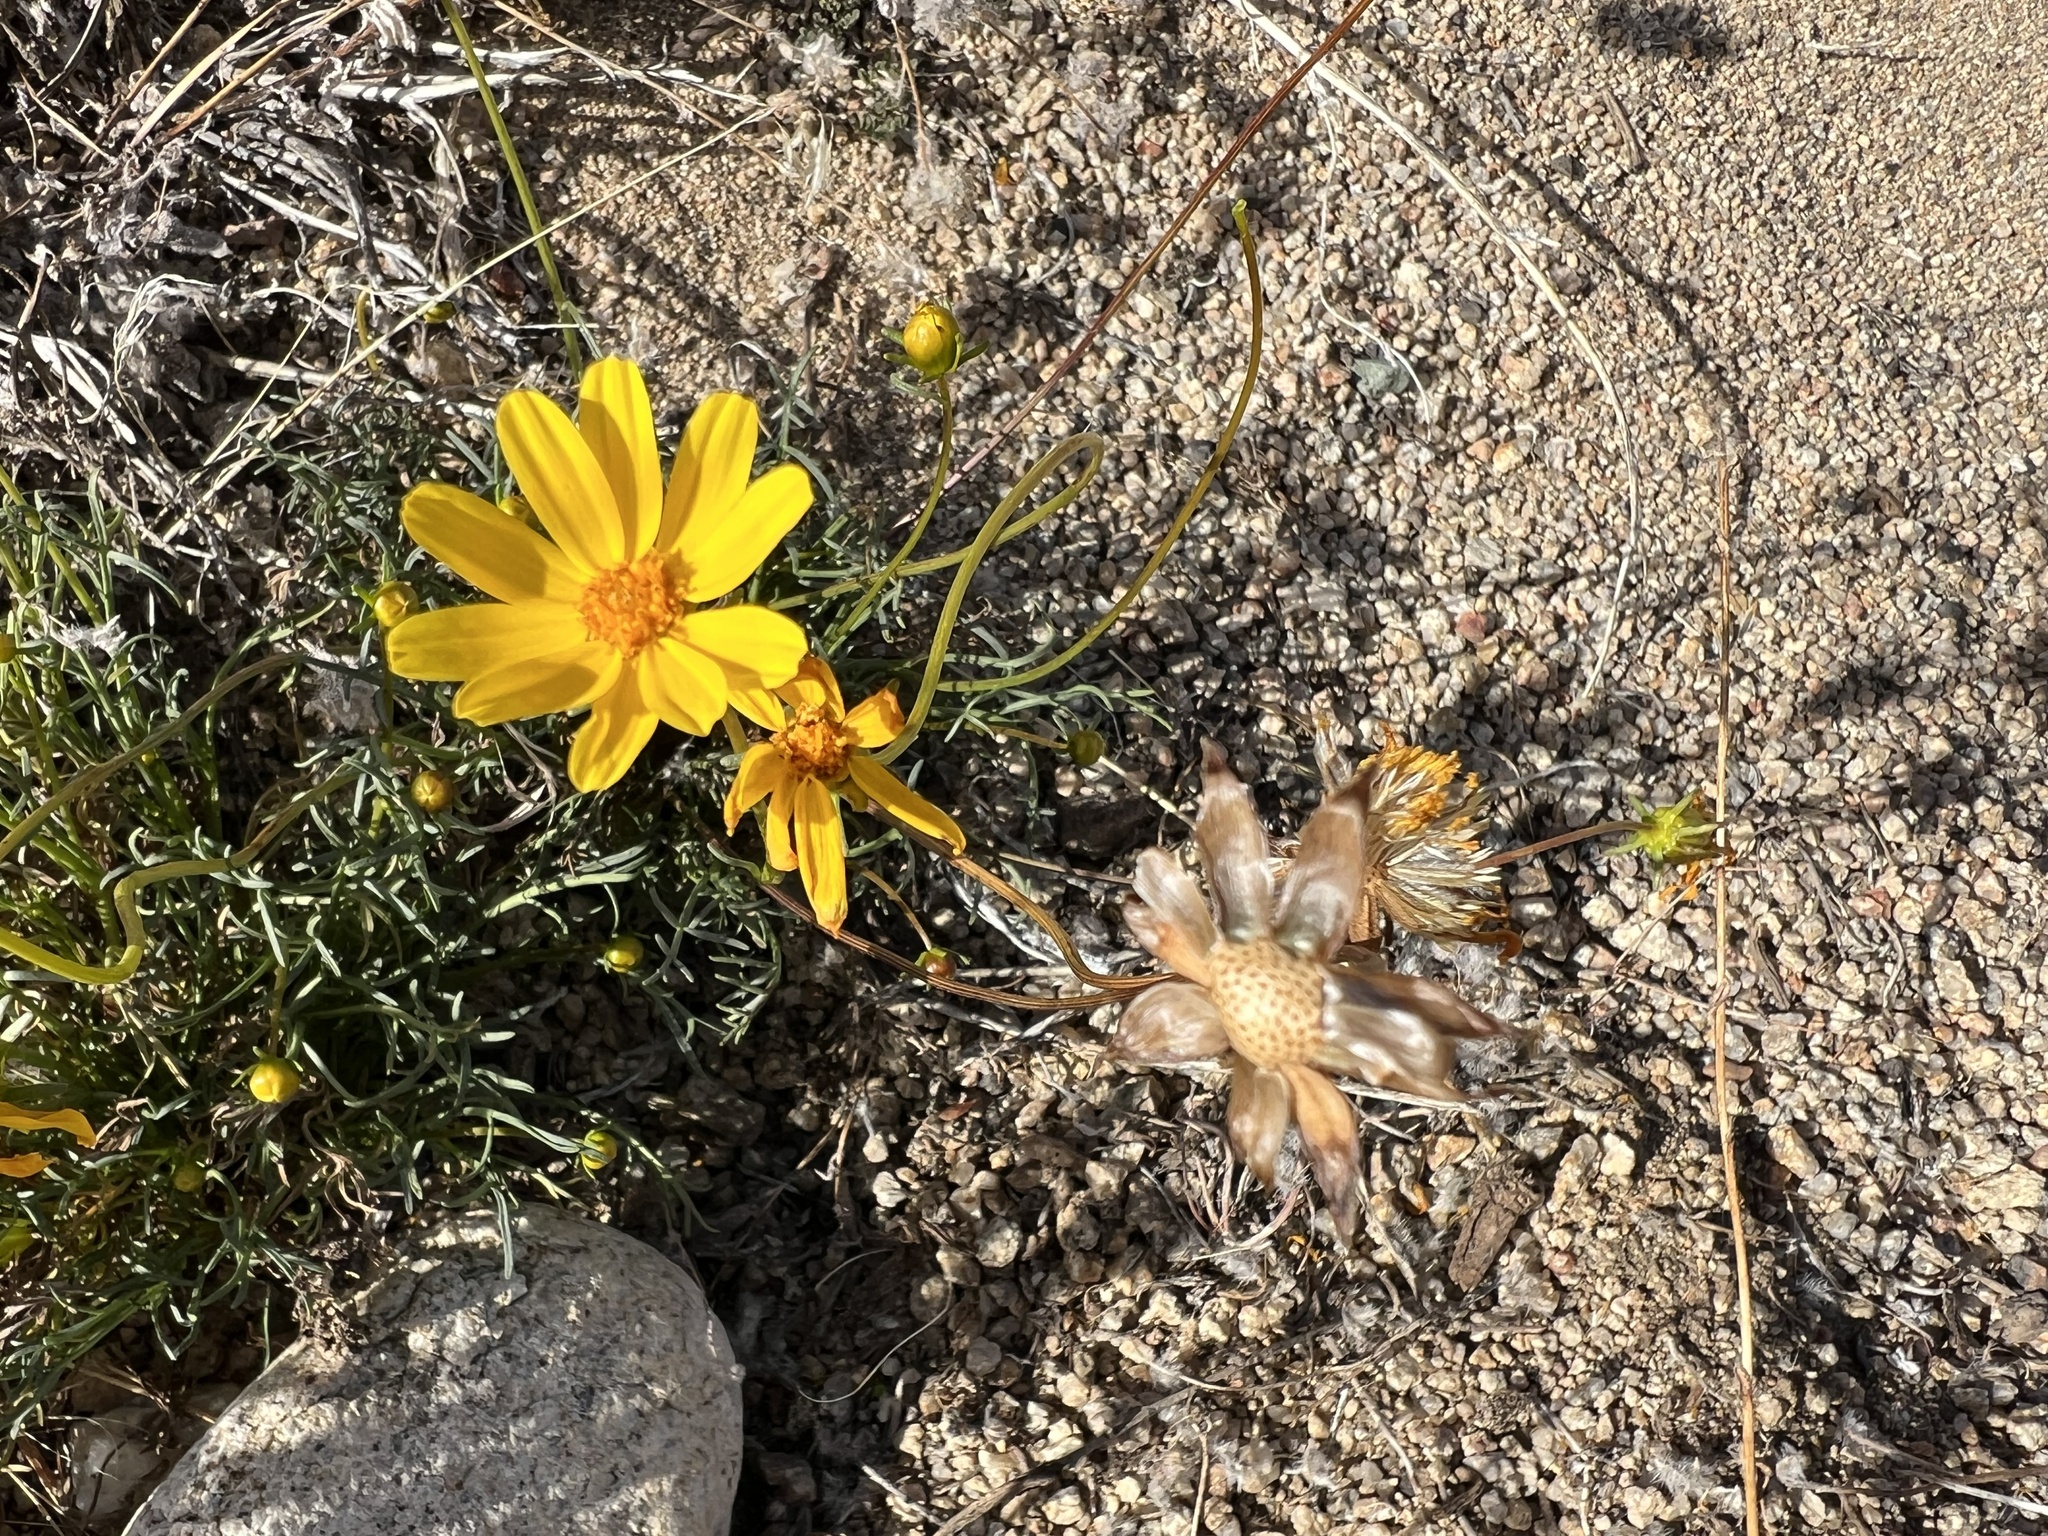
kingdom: Plantae
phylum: Tracheophyta
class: Magnoliopsida
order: Asterales
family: Asteraceae
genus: Coreopsis
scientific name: Coreopsis bigelovii
